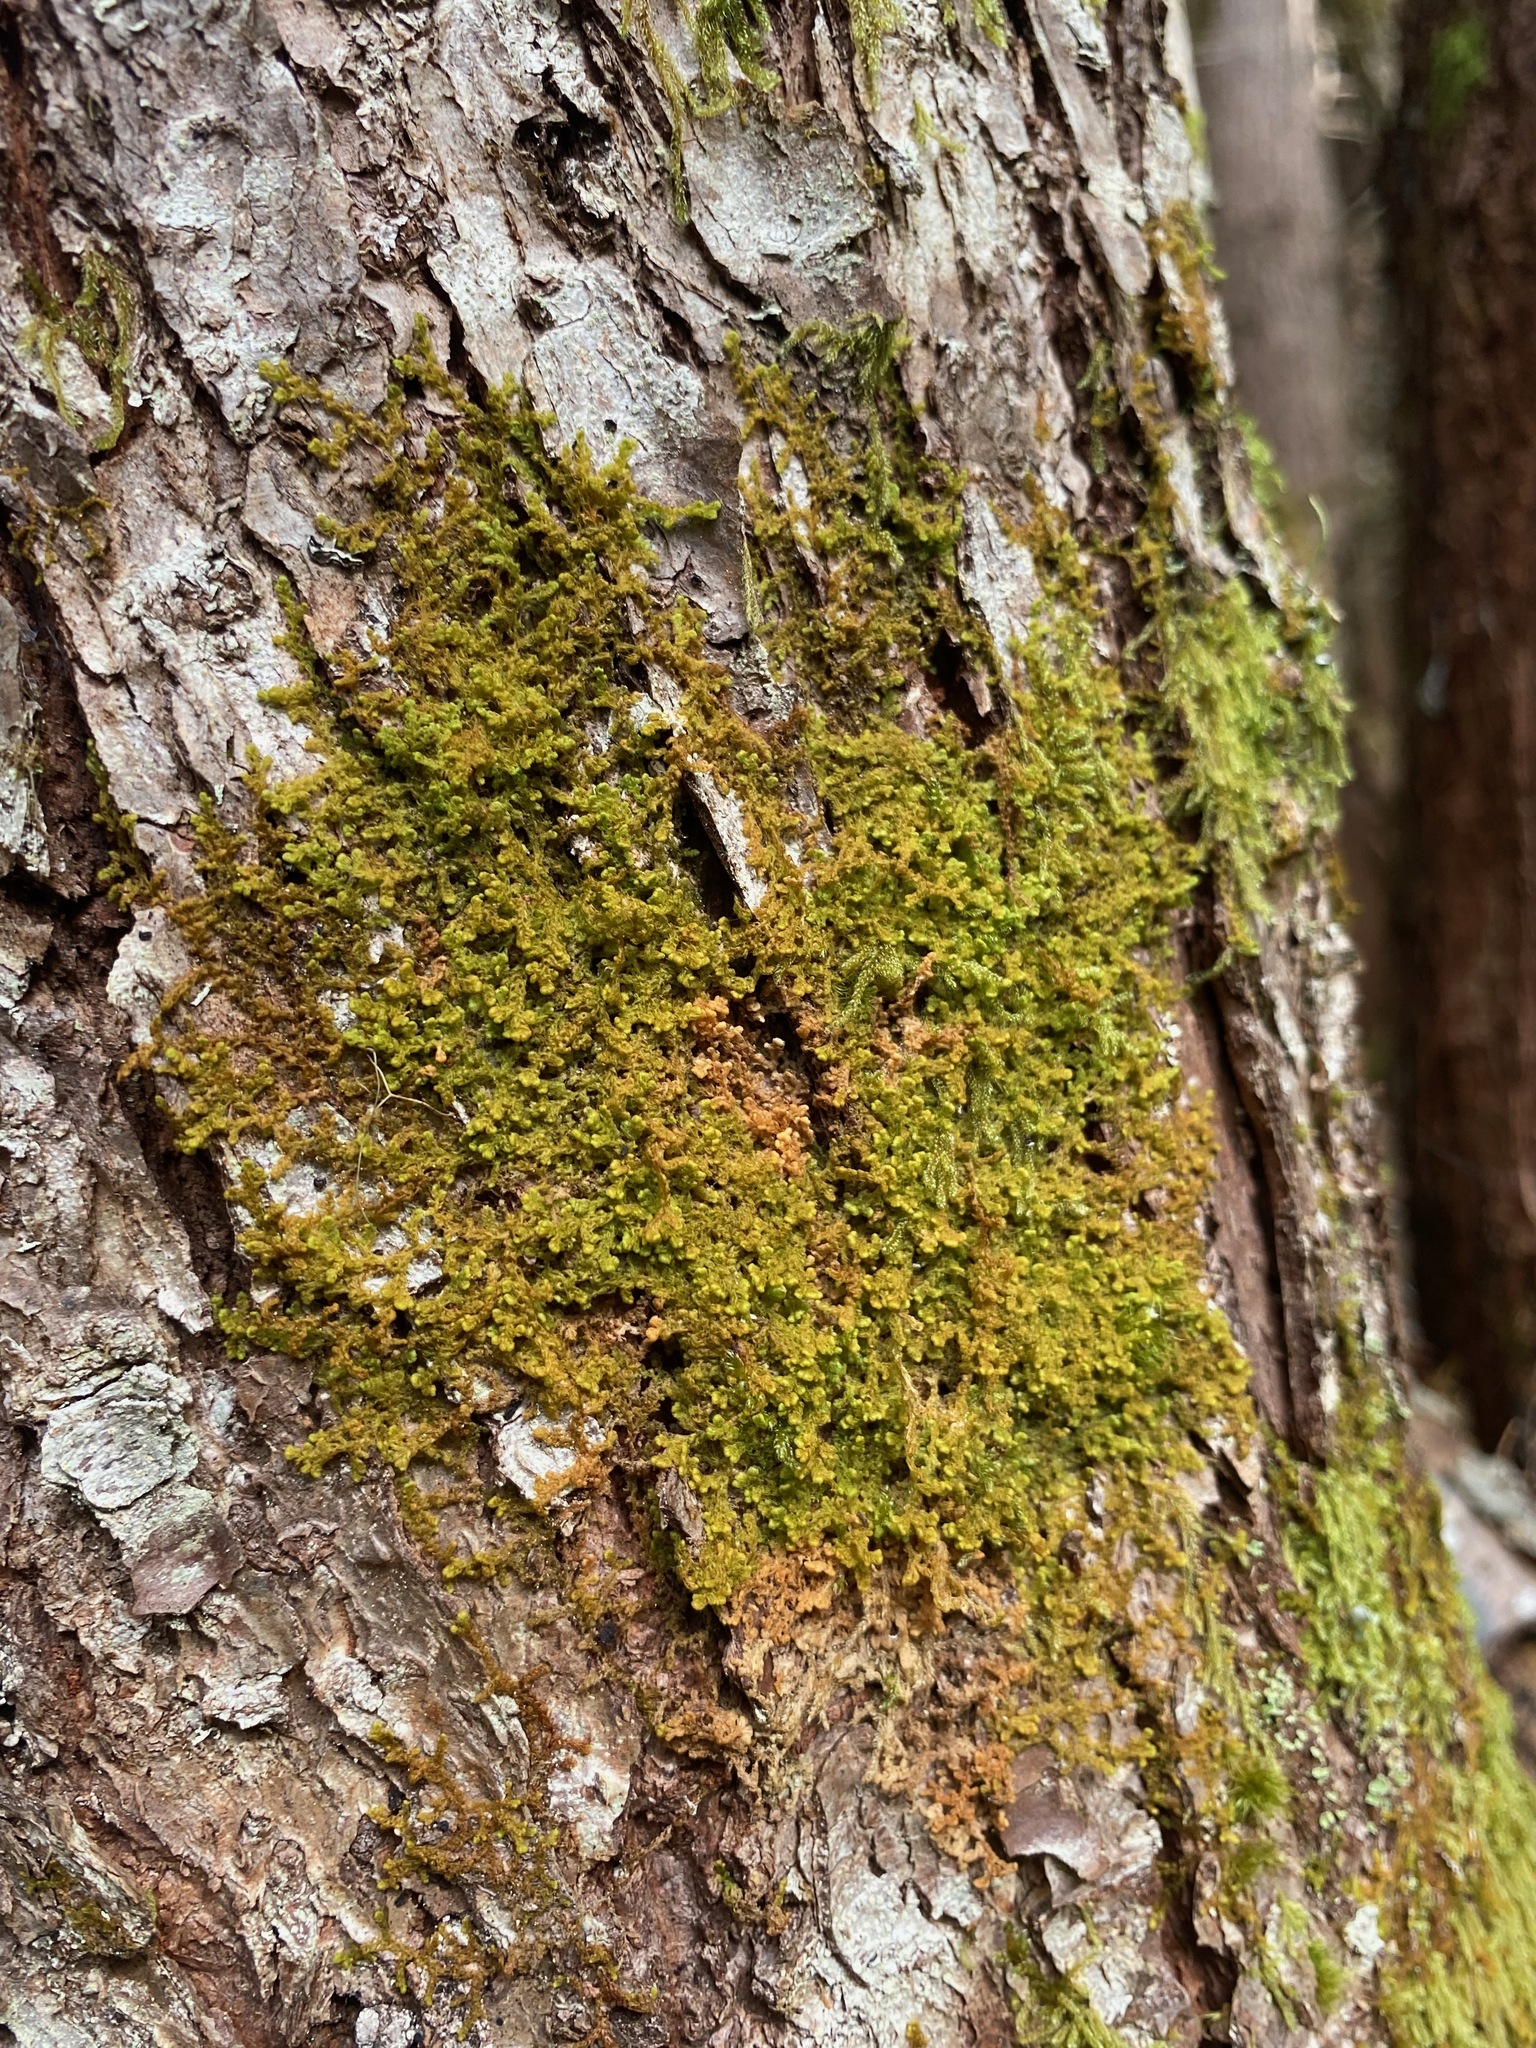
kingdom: Plantae
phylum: Marchantiophyta
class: Jungermanniopsida
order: Ptilidiales
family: Ptilidiaceae
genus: Ptilidium
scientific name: Ptilidium pulcherrimum
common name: Tree fringewort
